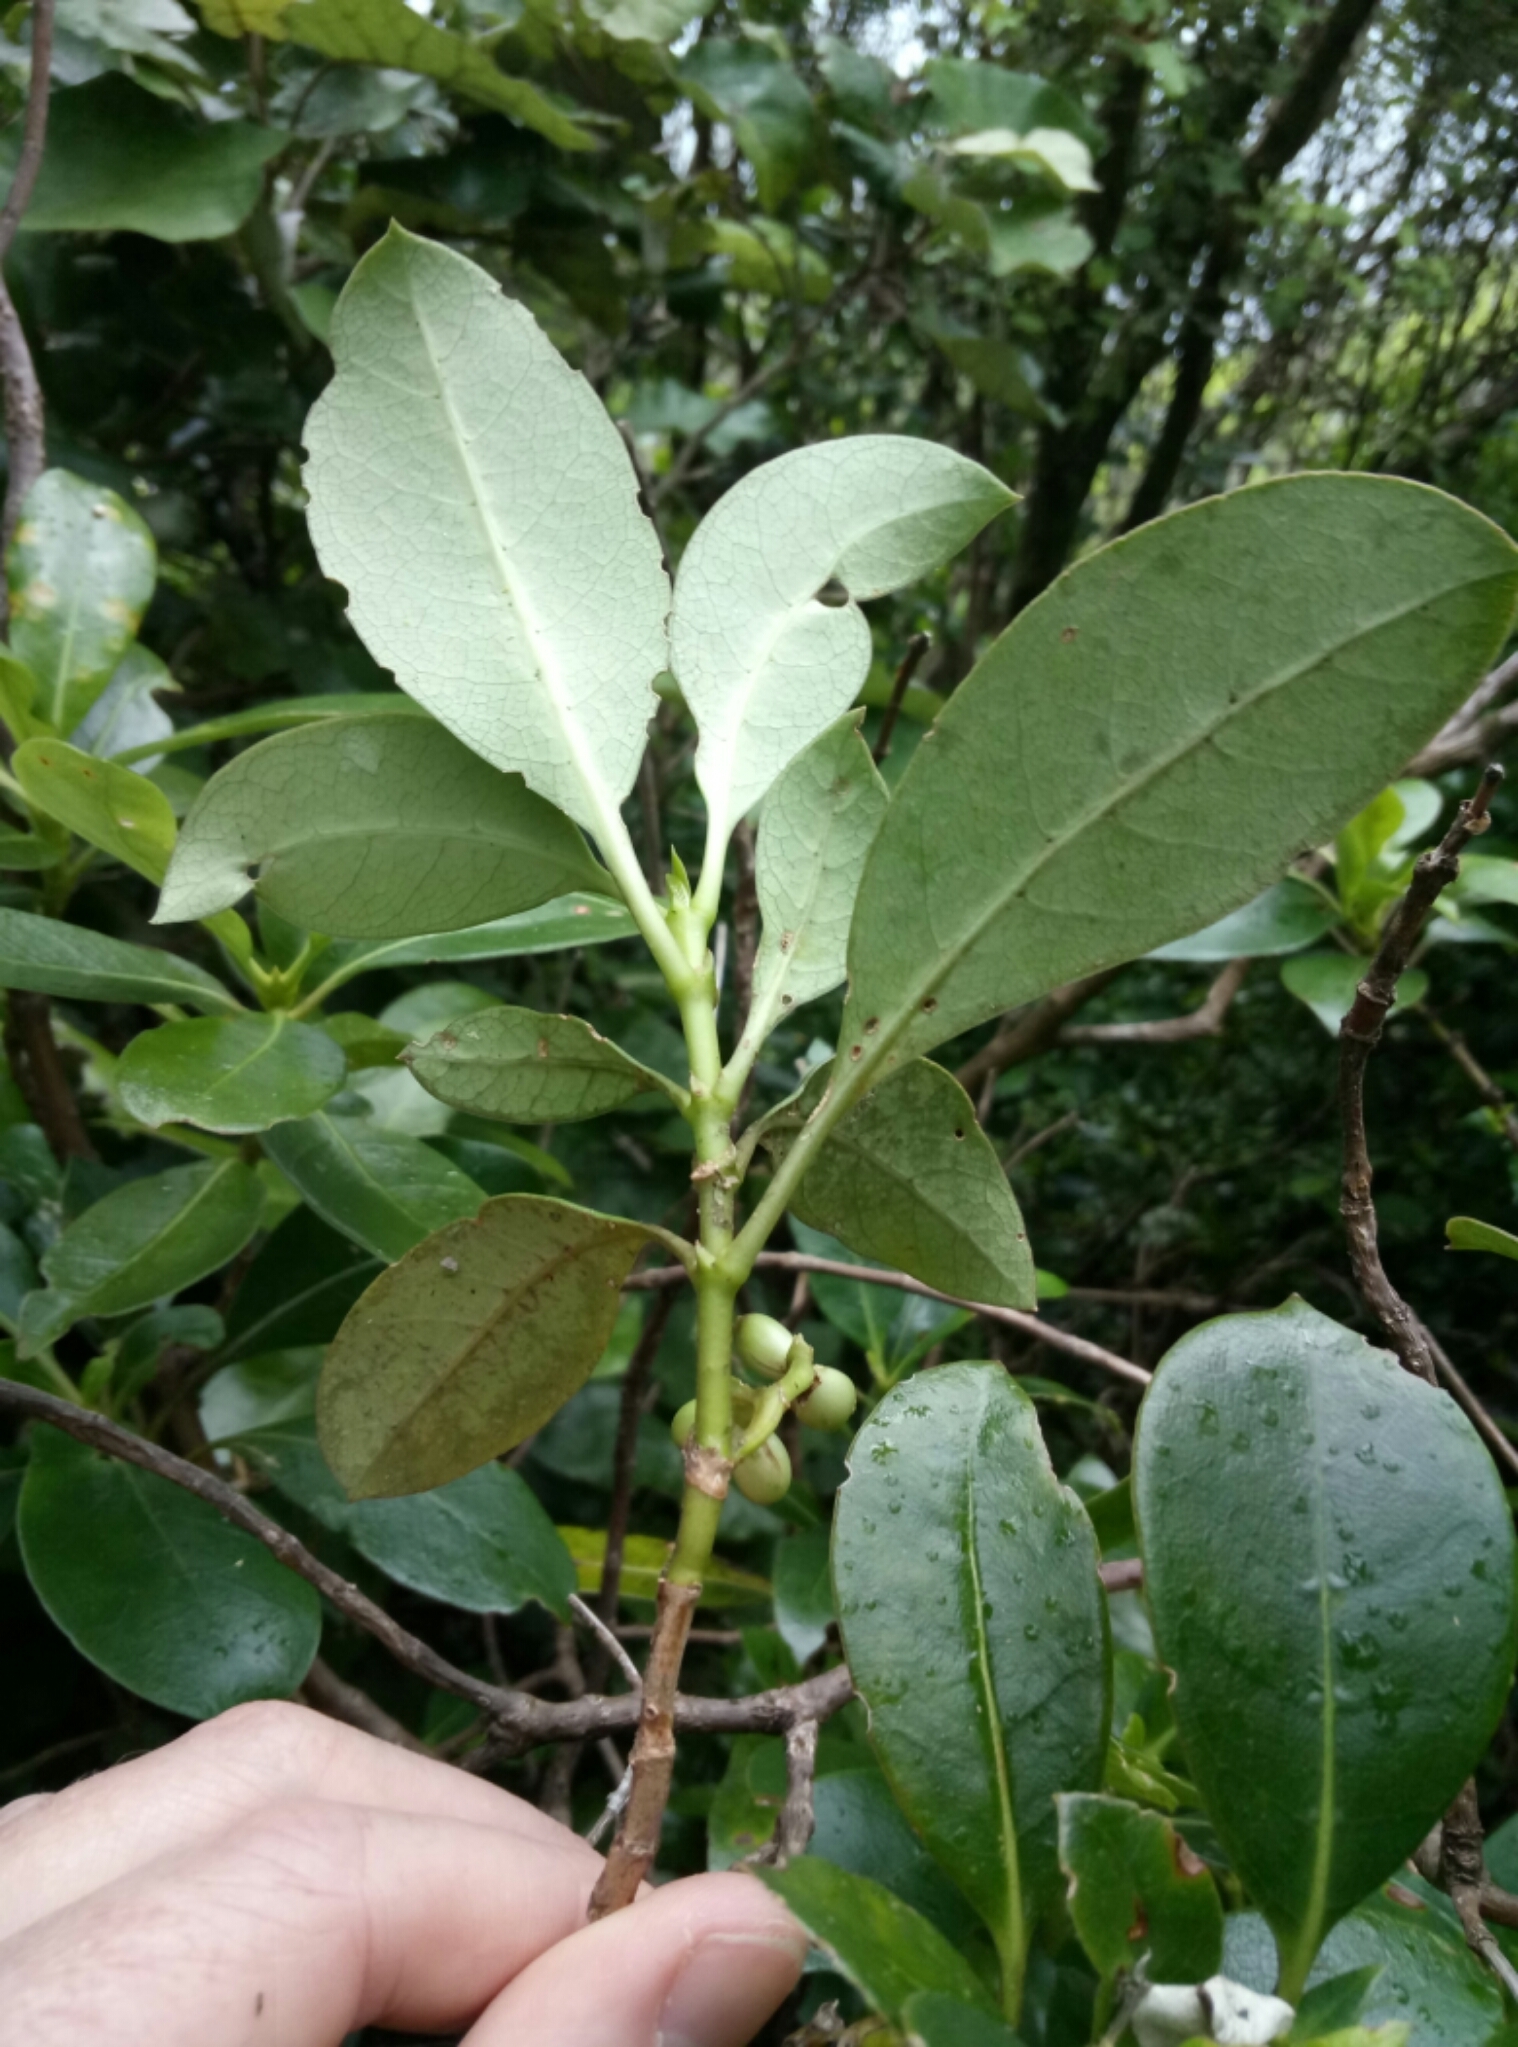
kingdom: Plantae
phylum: Tracheophyta
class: Magnoliopsida
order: Gentianales
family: Rubiaceae
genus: Coprosma
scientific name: Coprosma lucida
